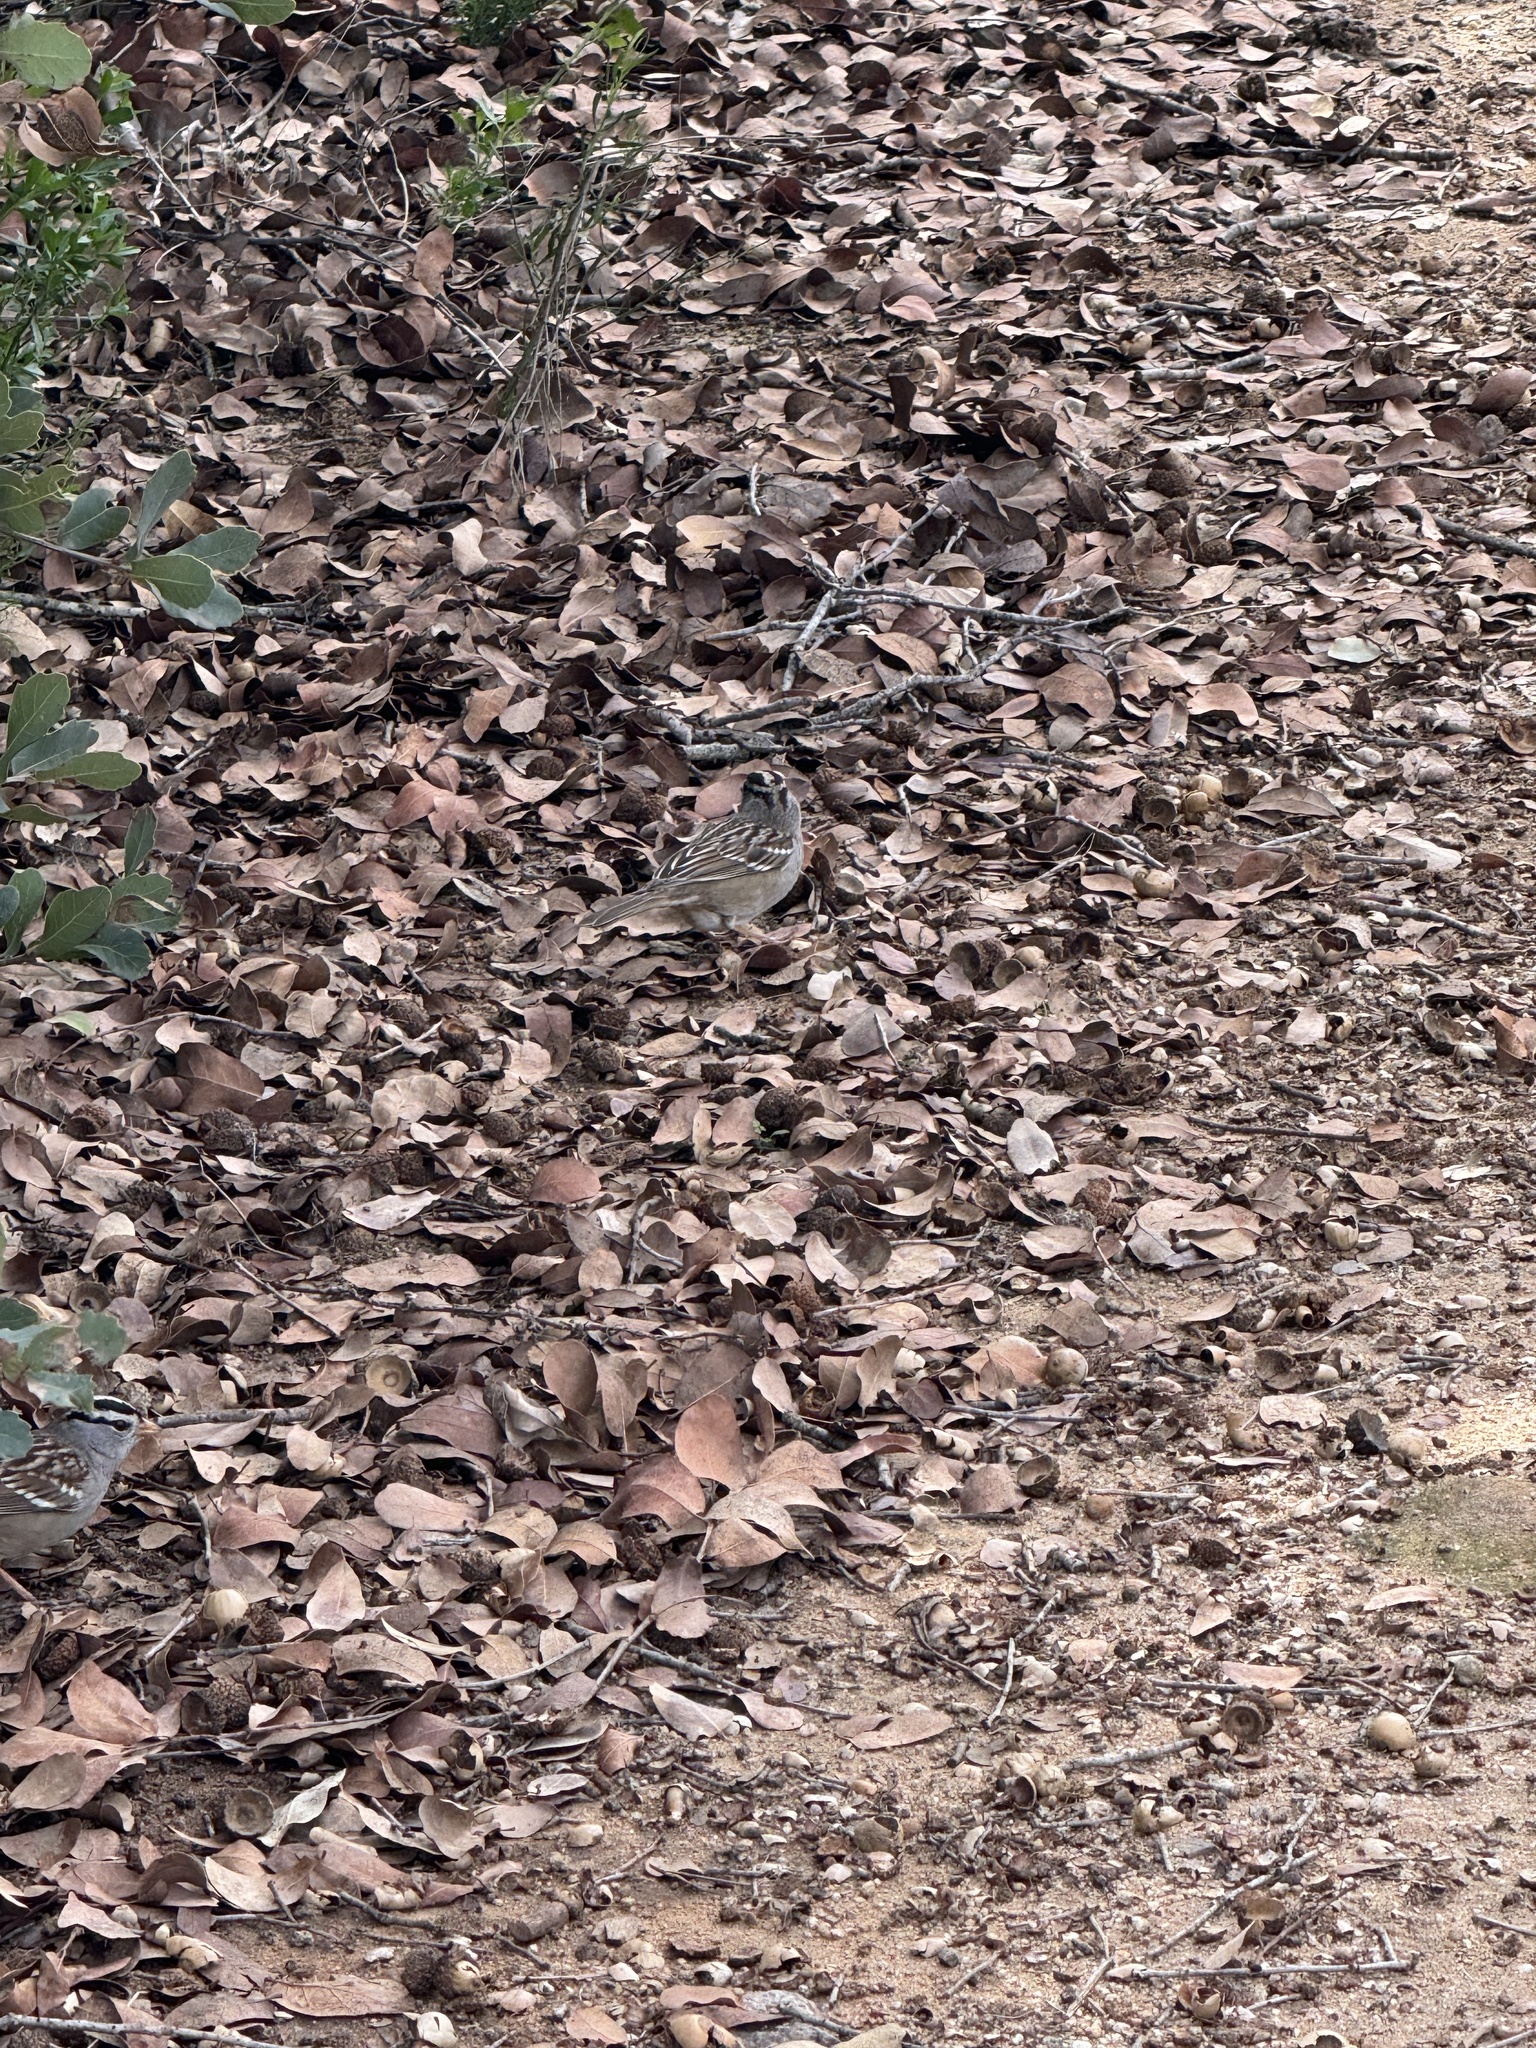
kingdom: Animalia
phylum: Chordata
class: Aves
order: Passeriformes
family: Passerellidae
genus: Zonotrichia
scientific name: Zonotrichia leucophrys
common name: White-crowned sparrow
